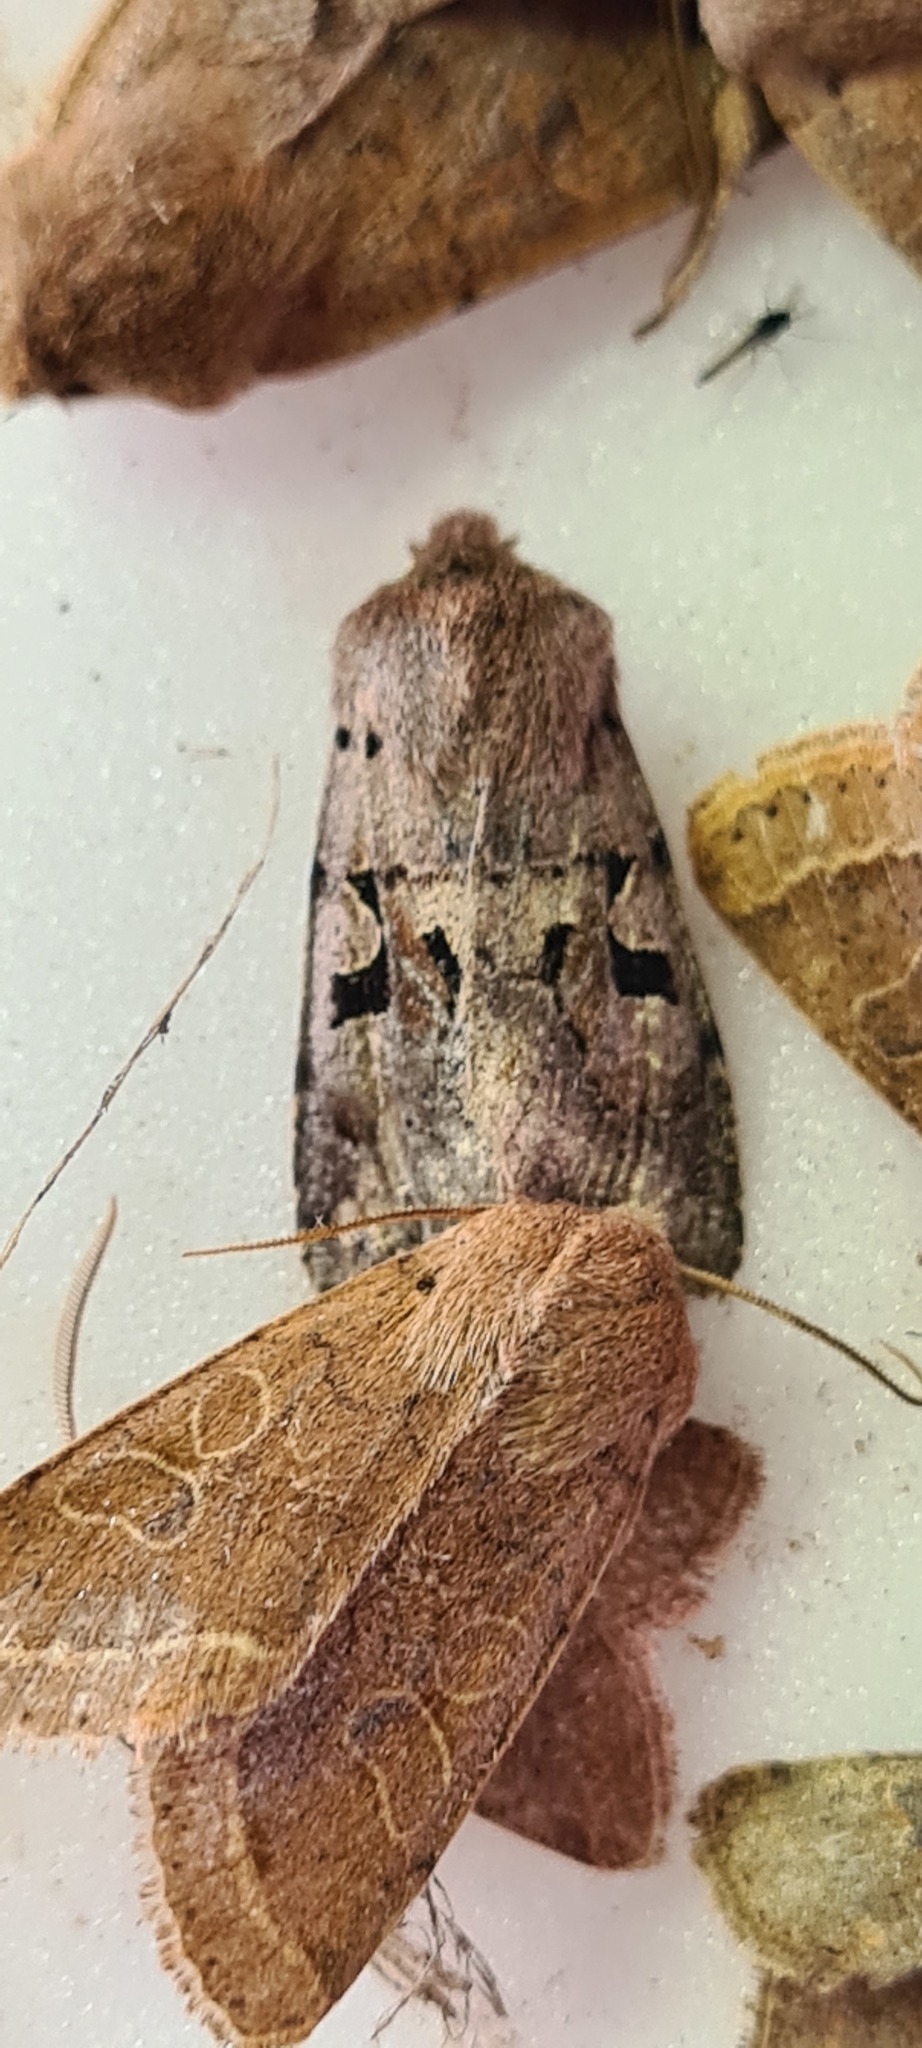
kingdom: Animalia
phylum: Arthropoda
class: Insecta
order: Lepidoptera
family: Noctuidae
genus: Orthosia
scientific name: Orthosia gothica
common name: Hebrew character
